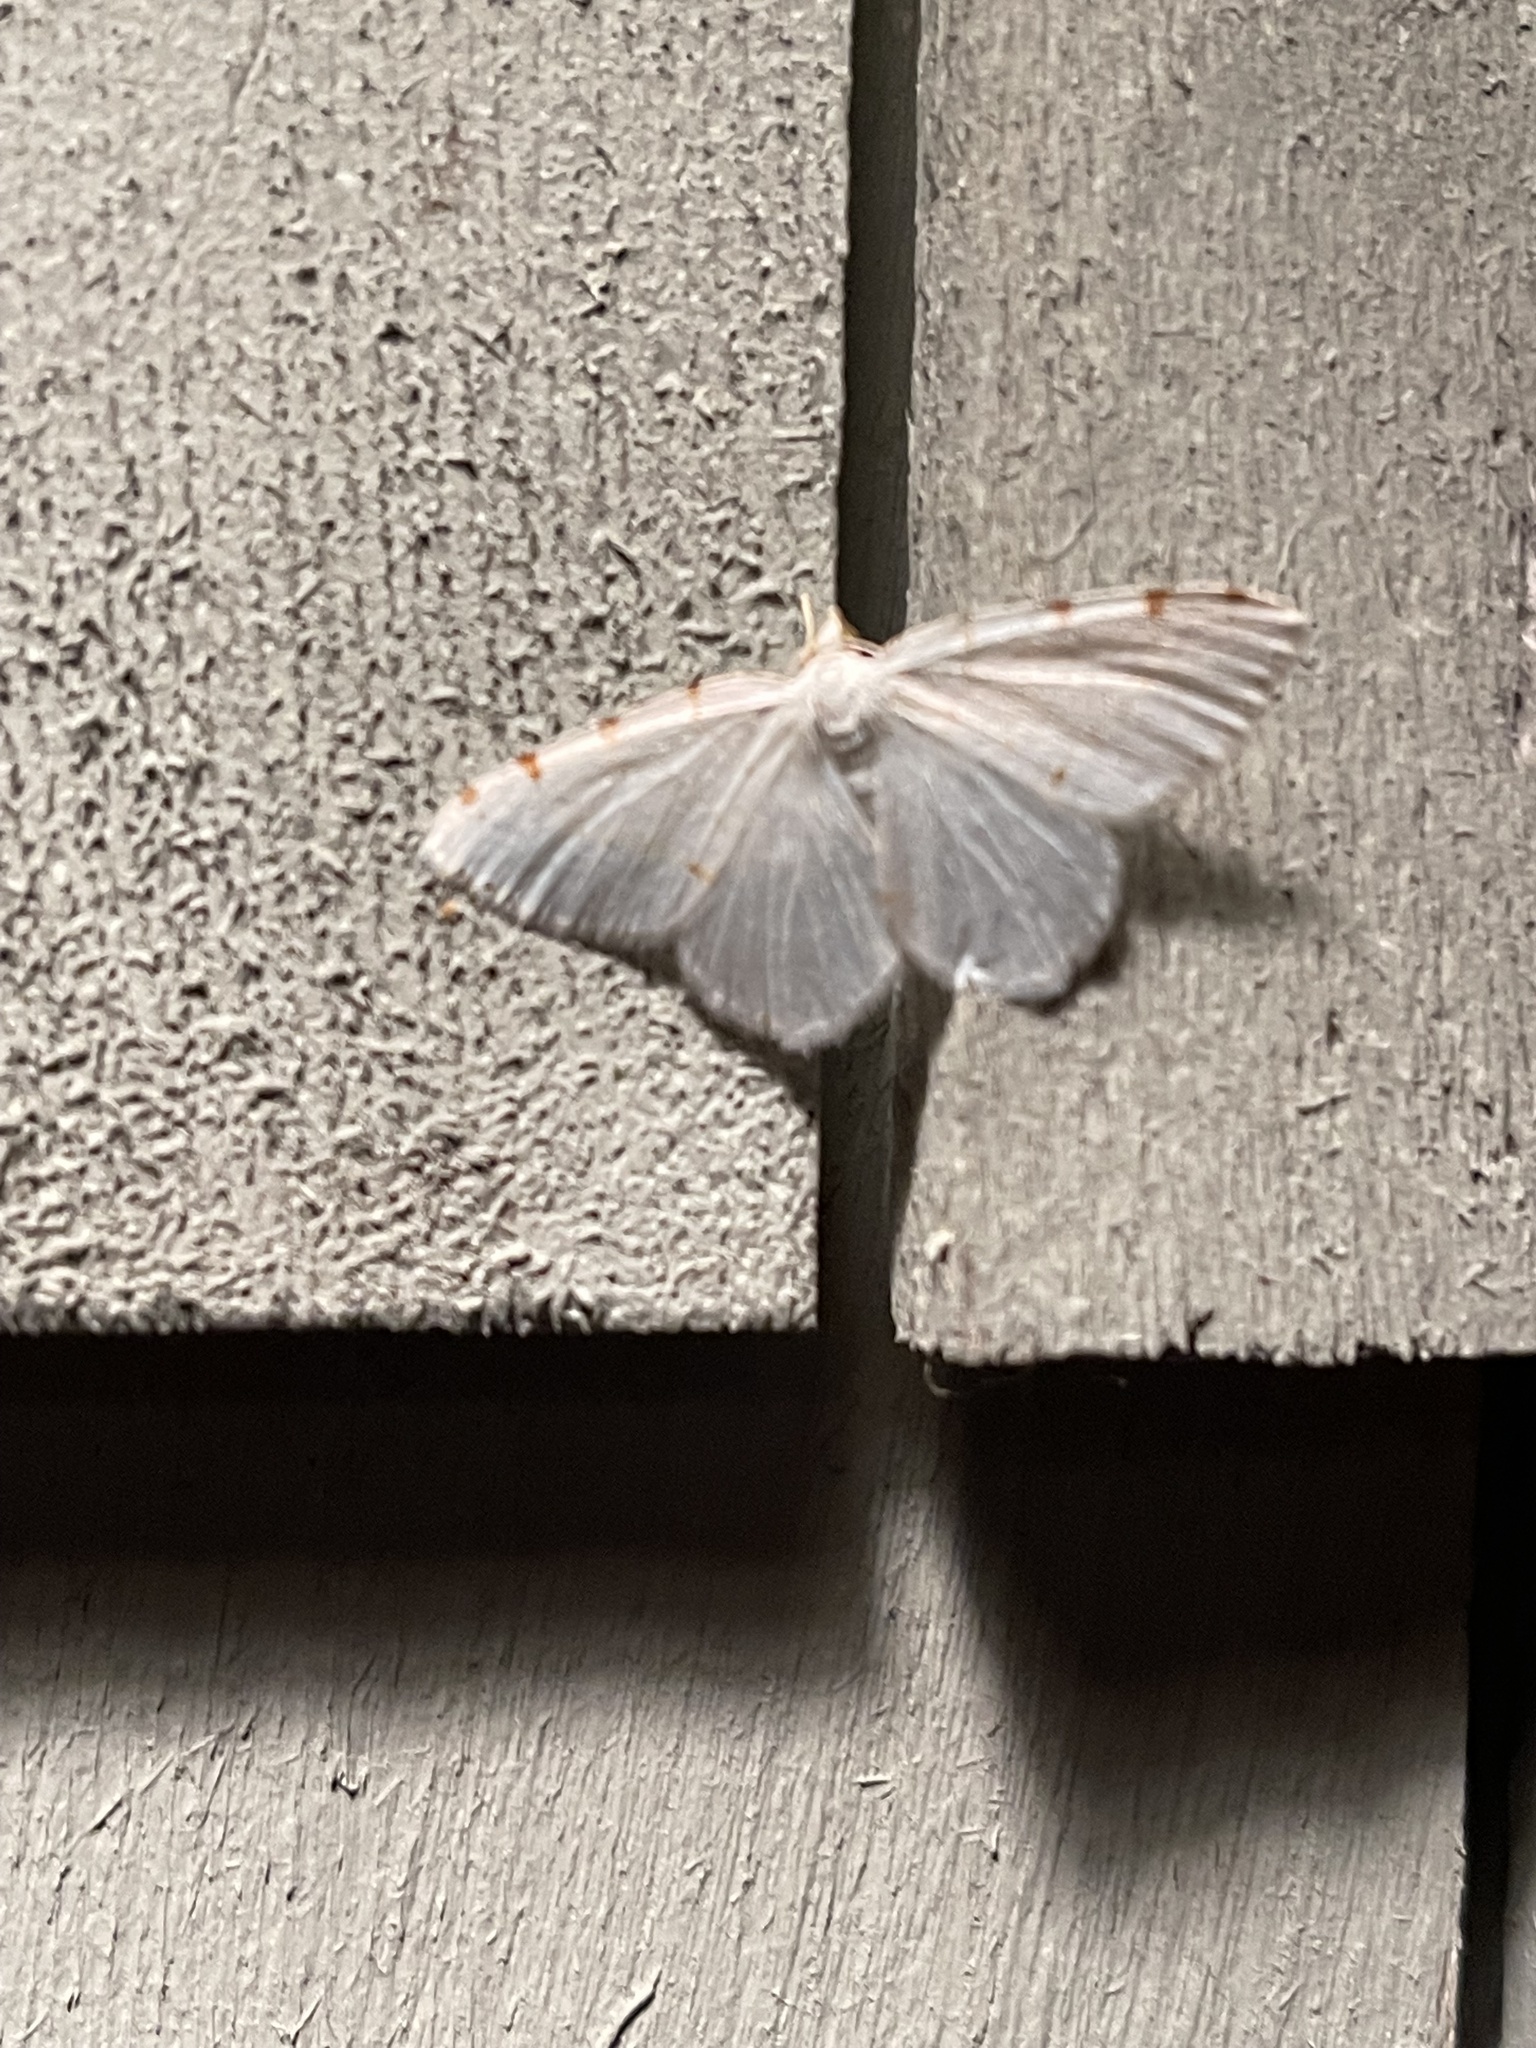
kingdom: Animalia
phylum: Arthropoda
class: Insecta
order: Lepidoptera
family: Geometridae
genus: Macaria
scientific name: Macaria pustularia
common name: Lesser maple spanworm moth
